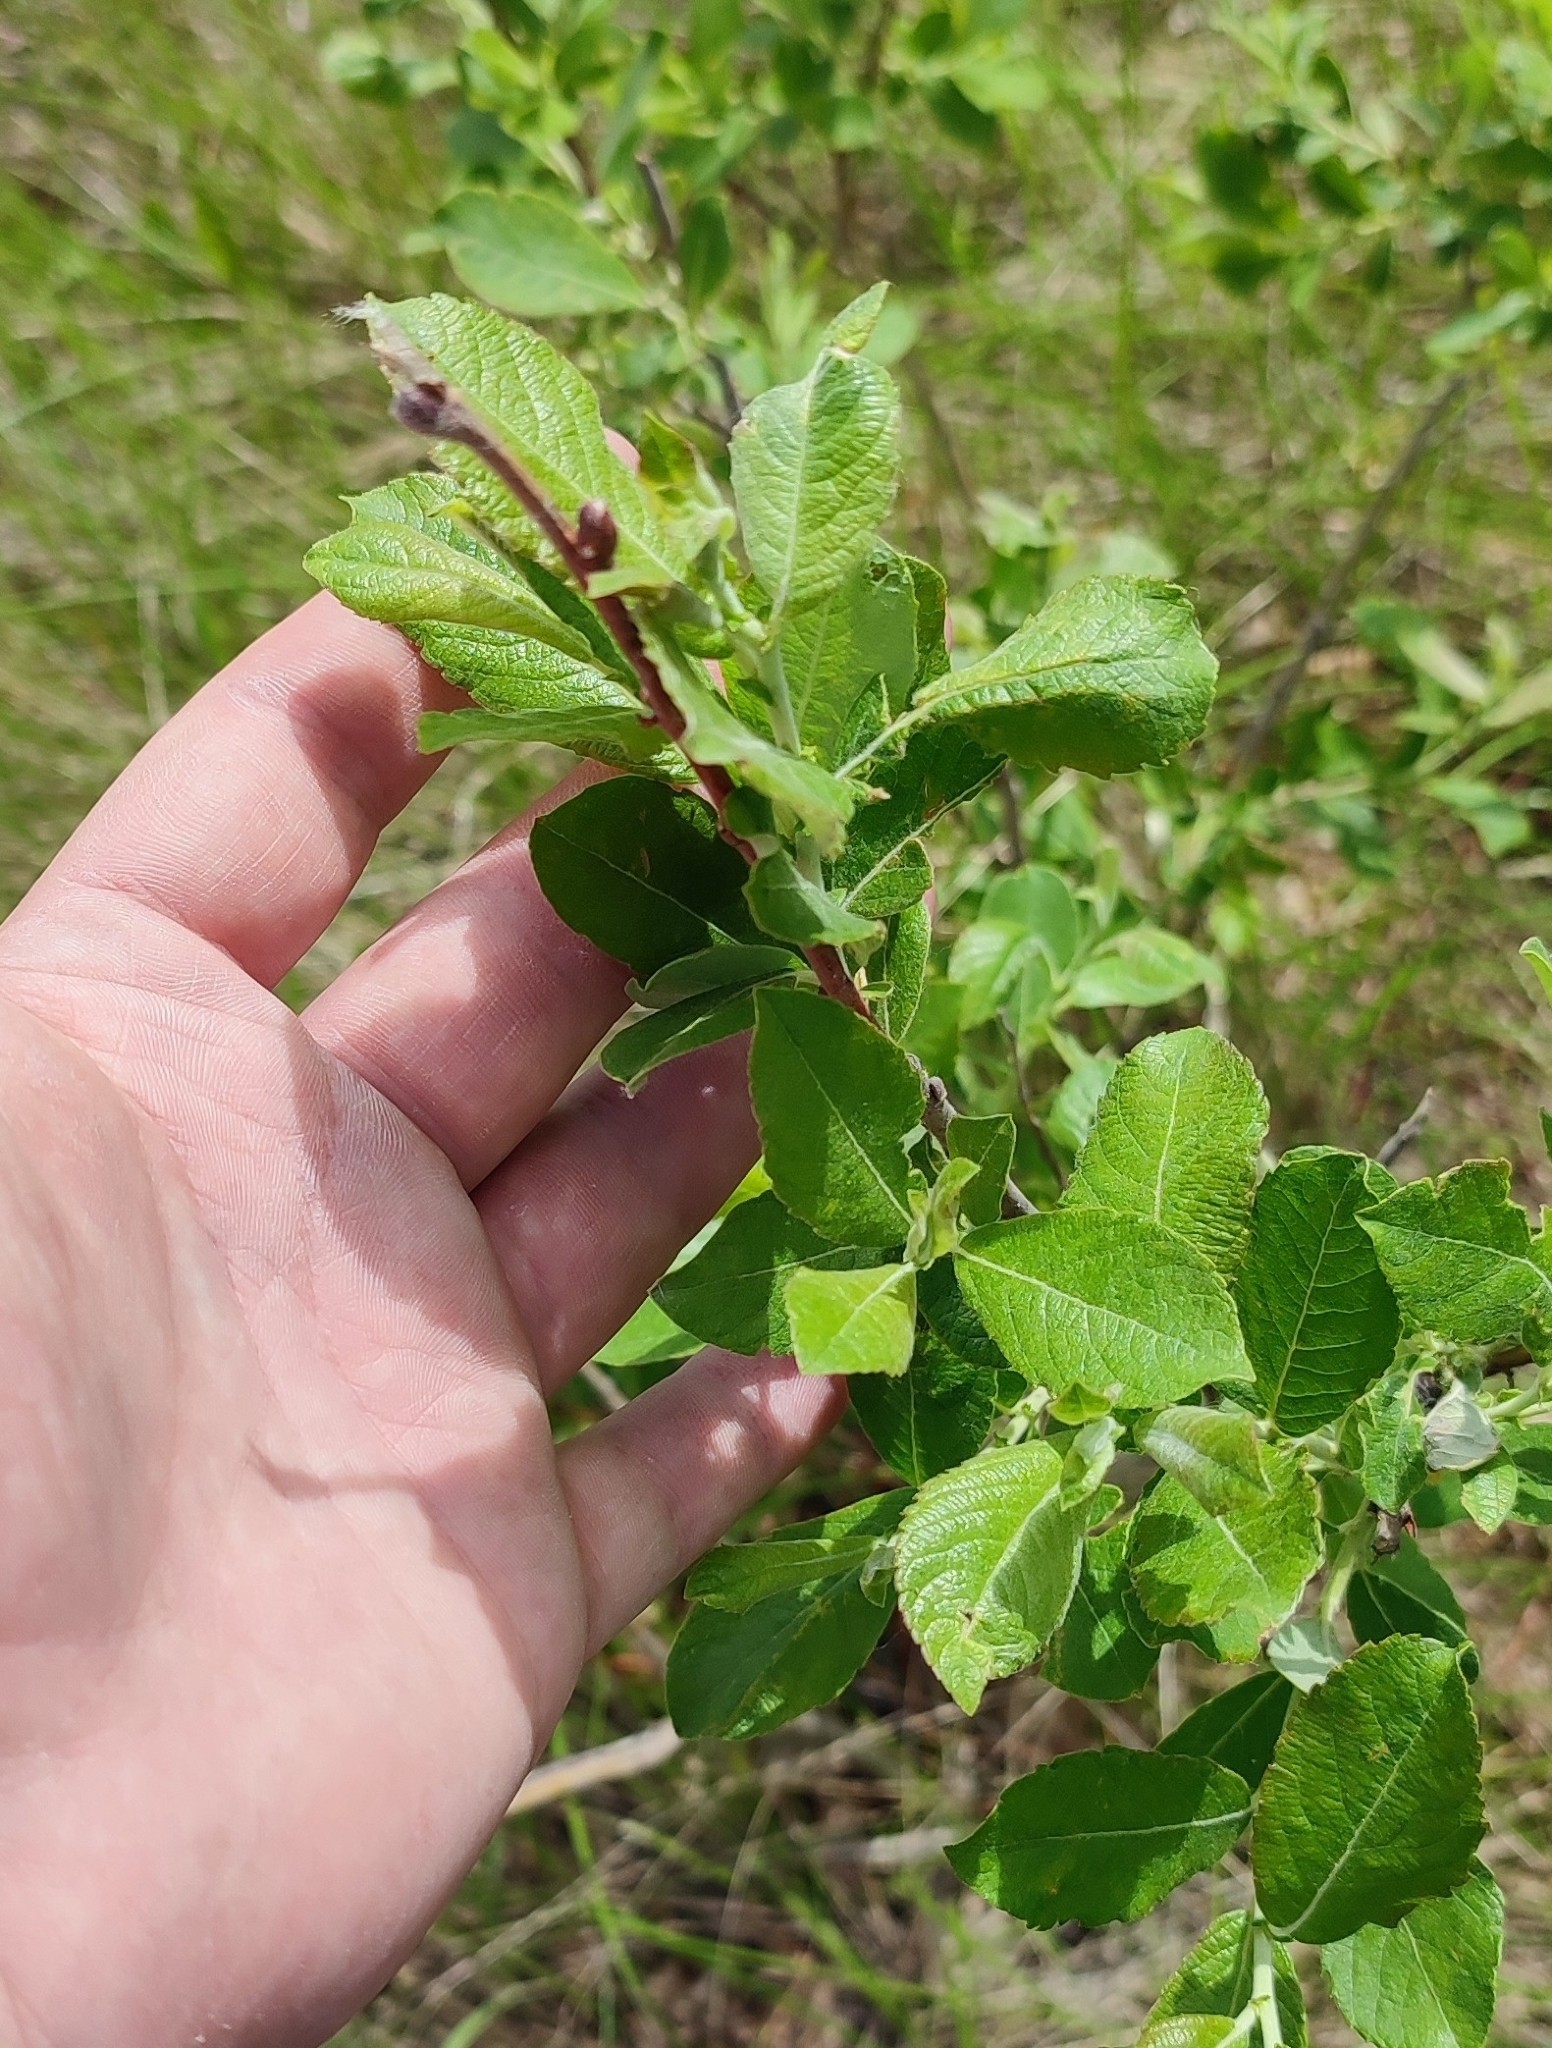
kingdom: Plantae
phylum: Tracheophyta
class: Magnoliopsida
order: Malpighiales
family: Salicaceae
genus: Salix
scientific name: Salix cinerea
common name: Common sallow
